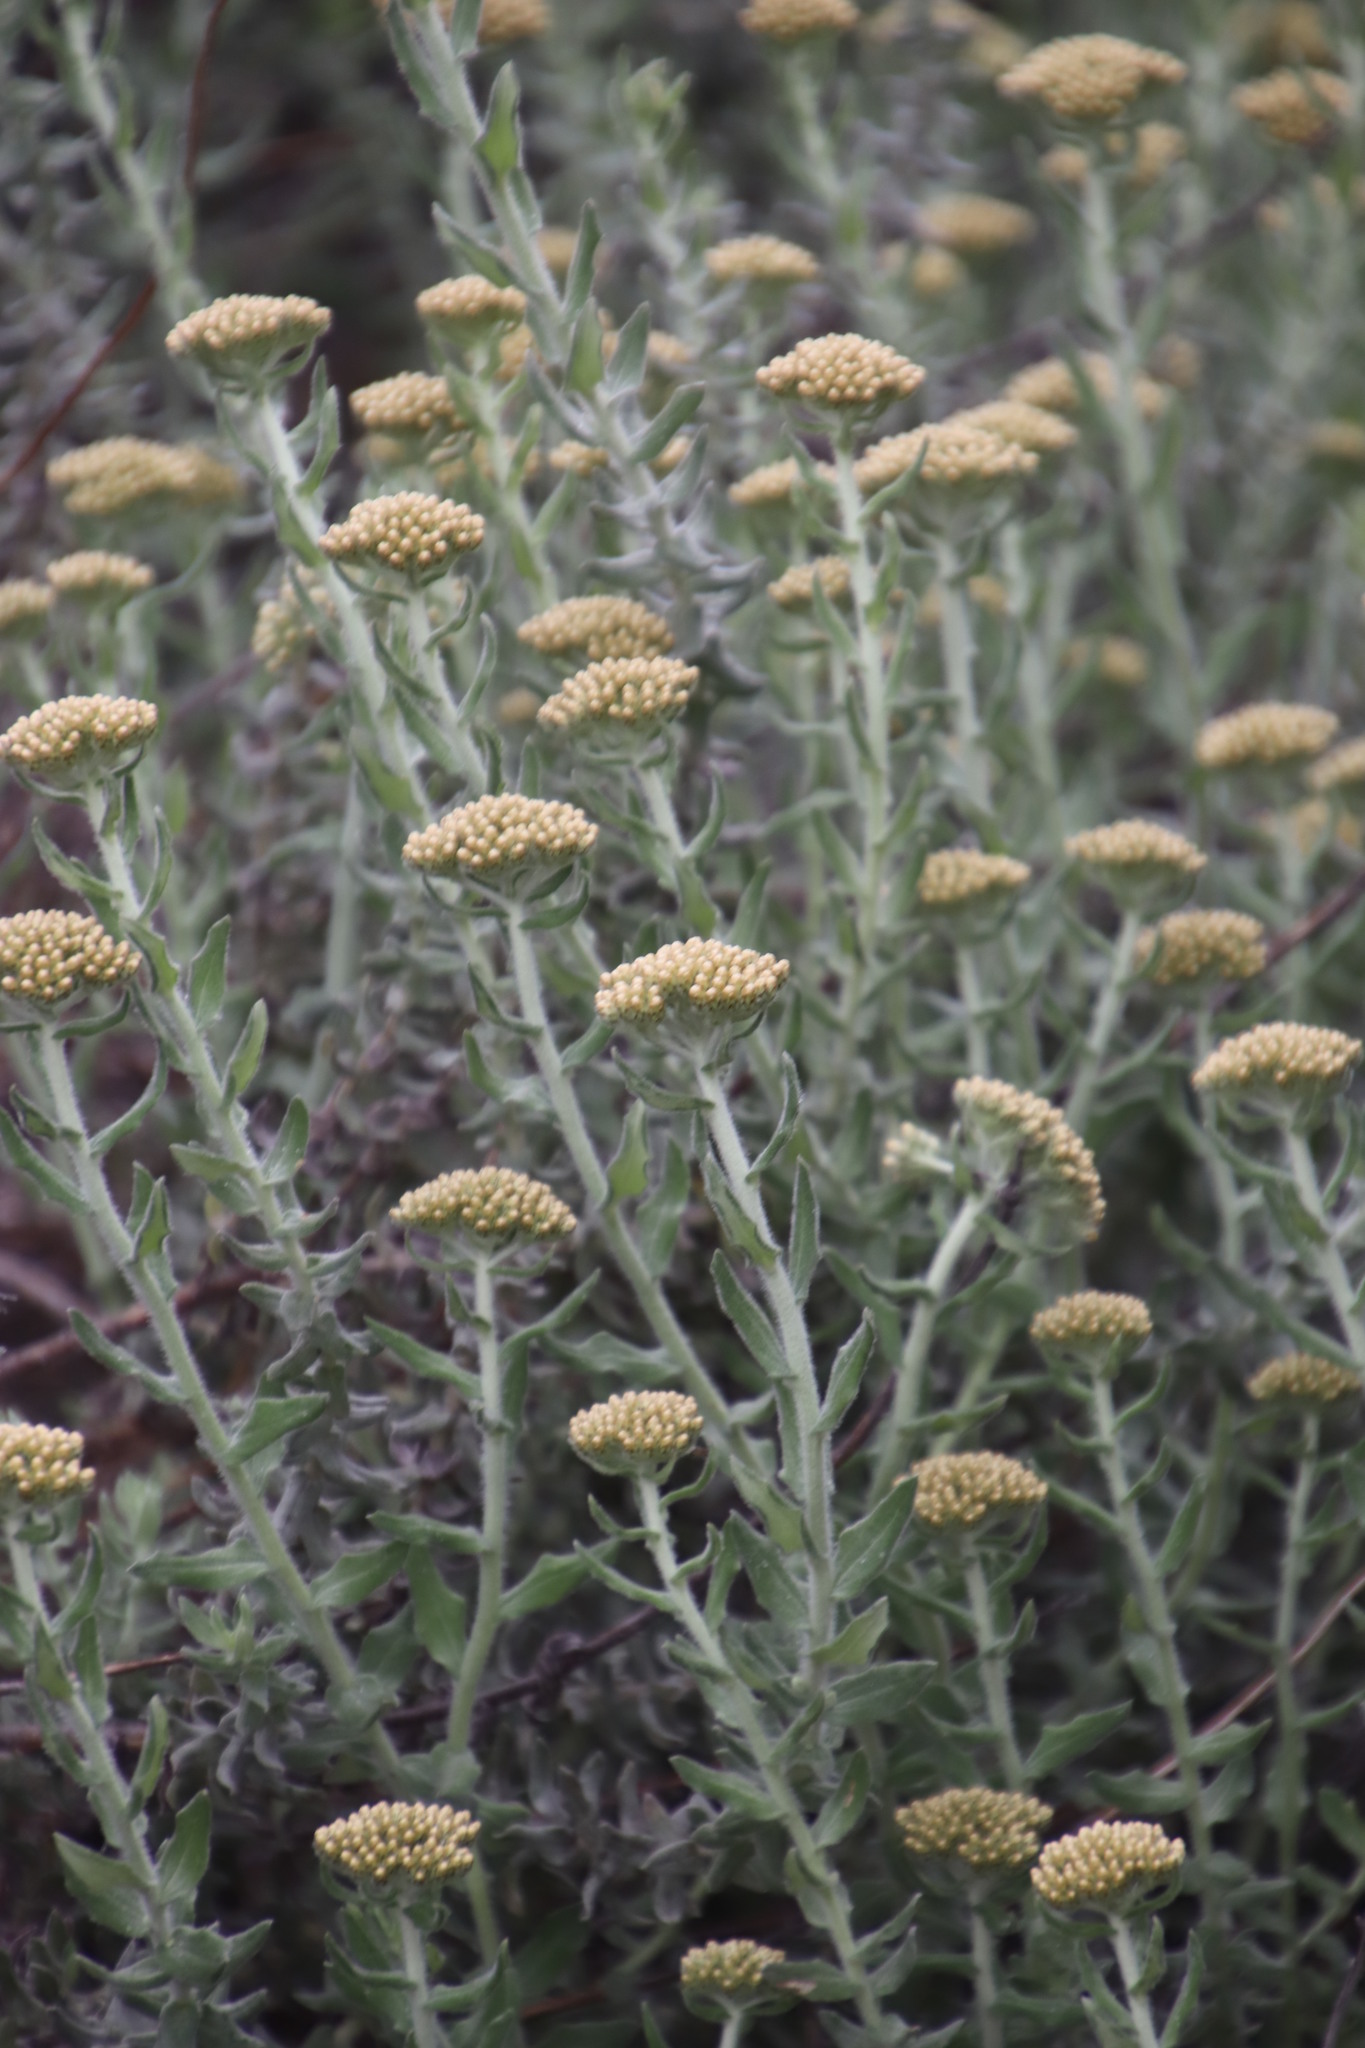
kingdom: Plantae
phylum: Tracheophyta
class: Magnoliopsida
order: Asterales
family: Asteraceae
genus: Helichrysum
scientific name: Helichrysum dasyanthum
